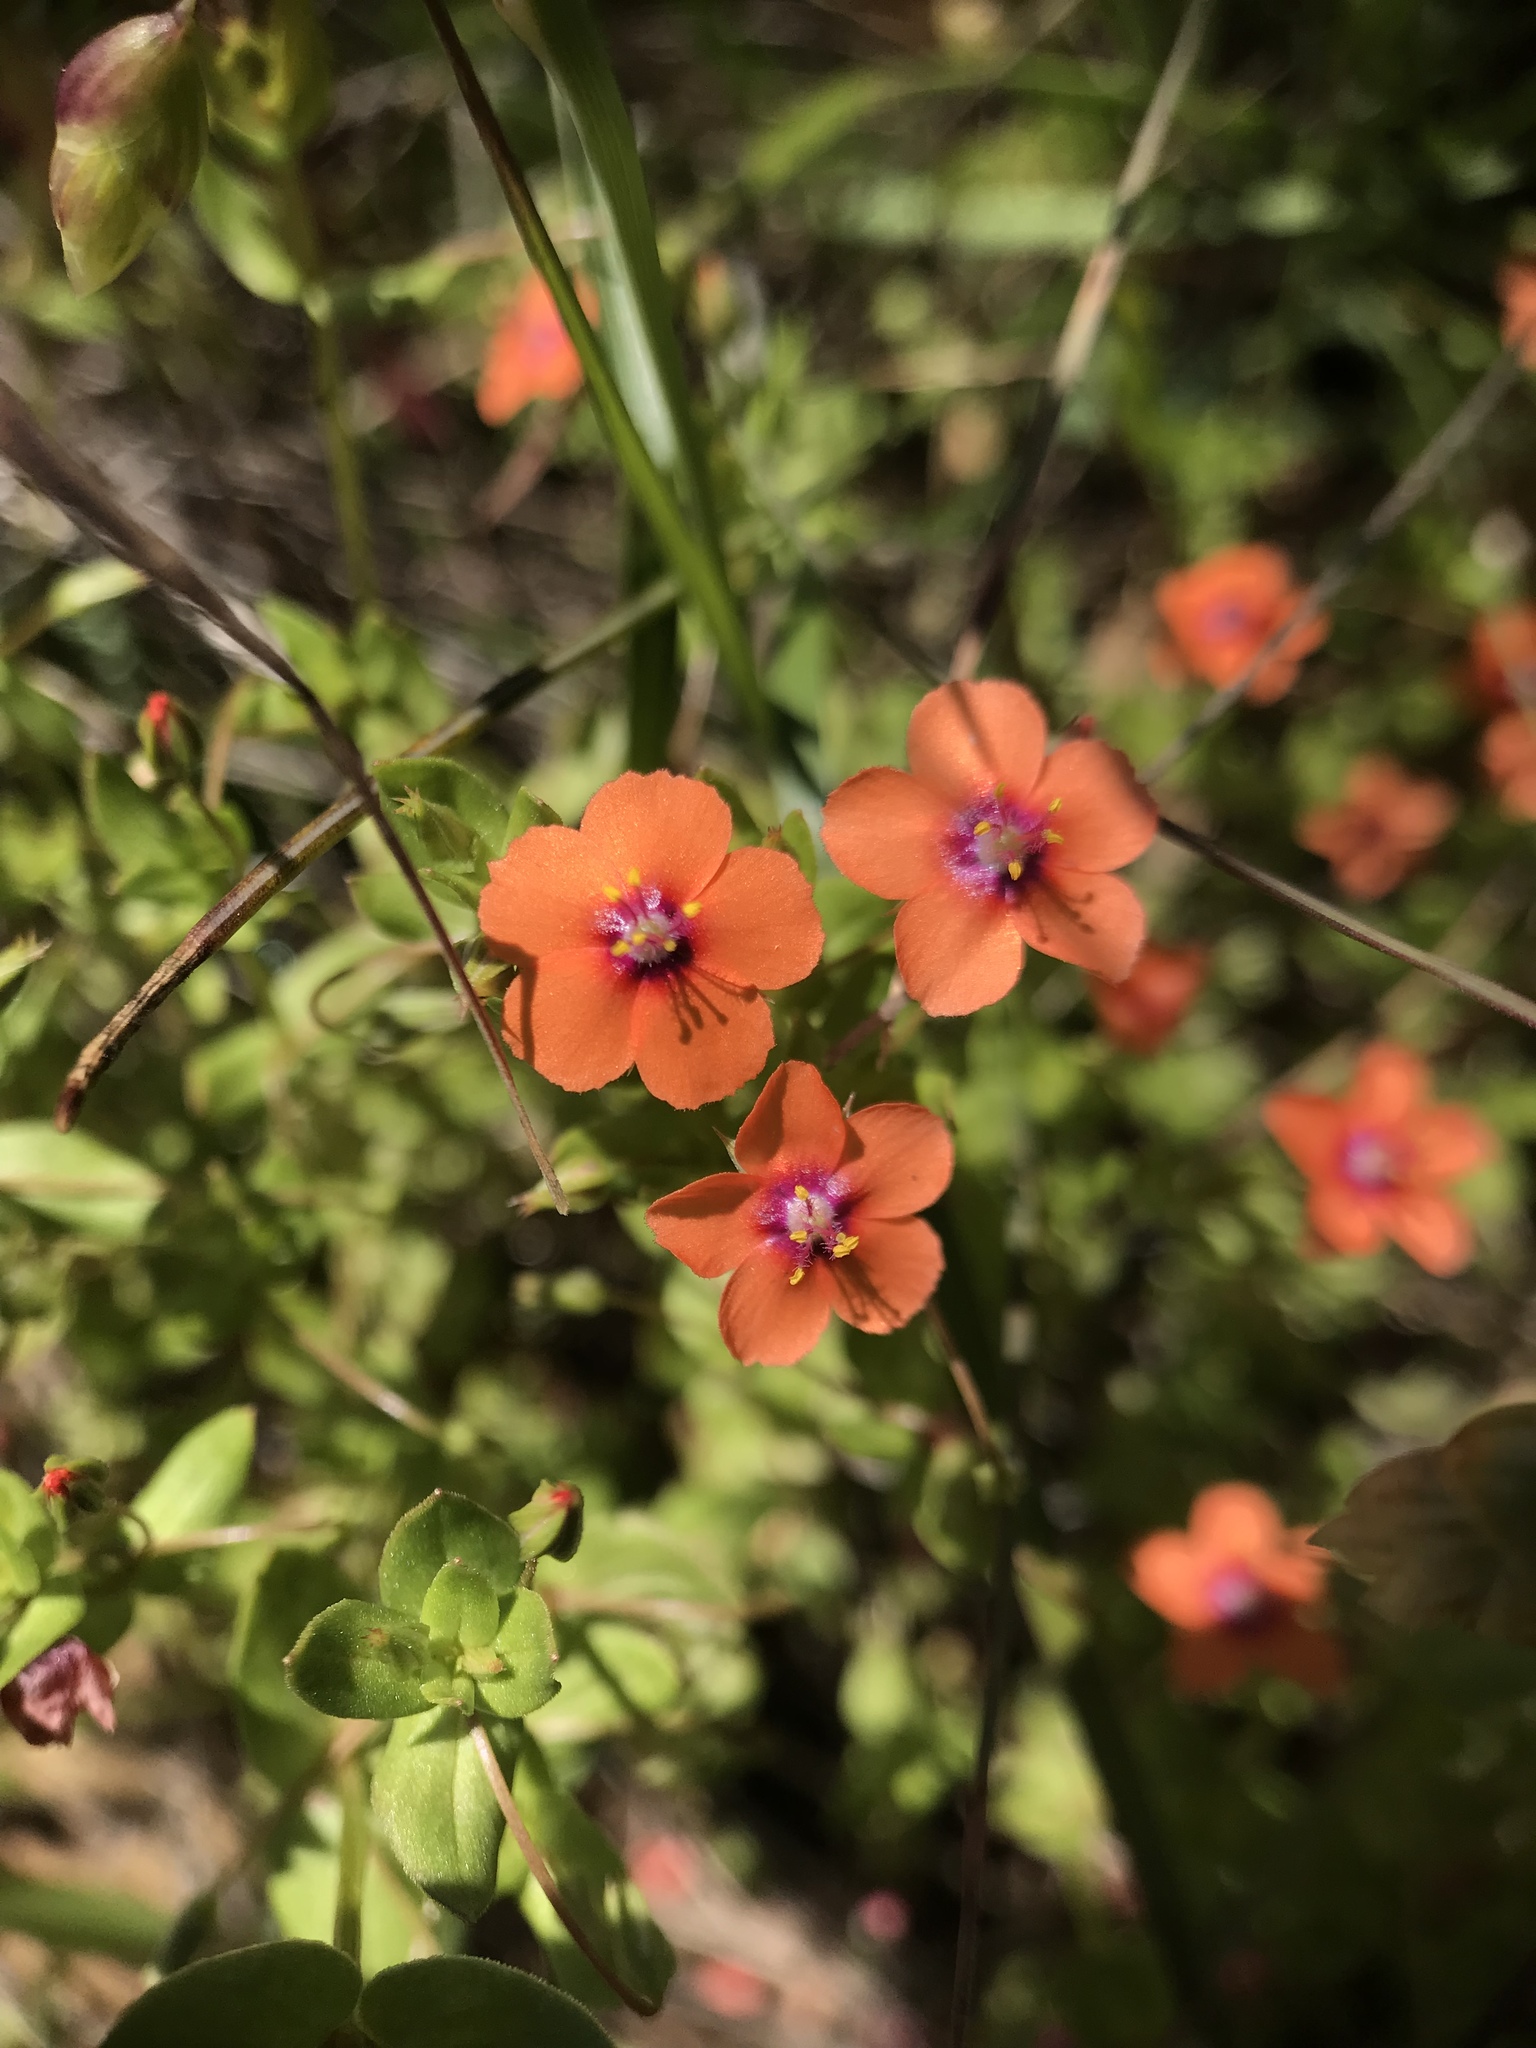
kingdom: Plantae
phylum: Tracheophyta
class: Magnoliopsida
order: Ericales
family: Primulaceae
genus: Lysimachia
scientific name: Lysimachia arvensis
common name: Scarlet pimpernel
